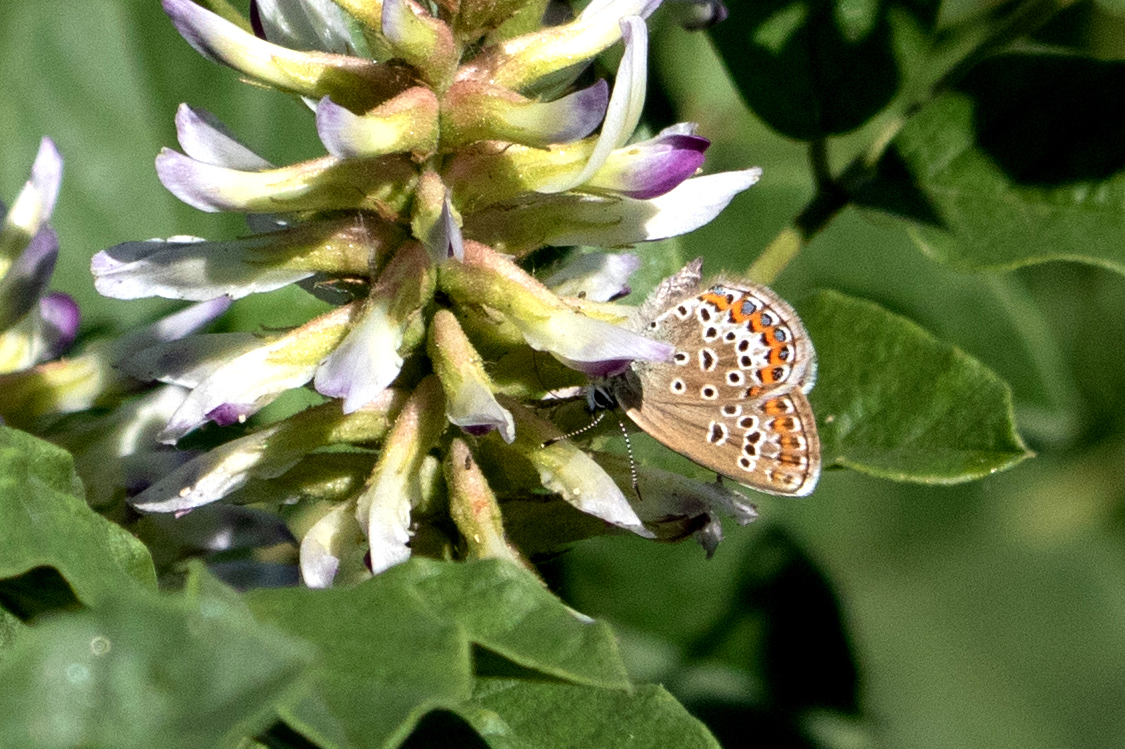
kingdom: Animalia
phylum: Arthropoda
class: Insecta
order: Lepidoptera
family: Lycaenidae
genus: Plebejus
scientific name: Plebejus argus
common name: Silver-studded blue
